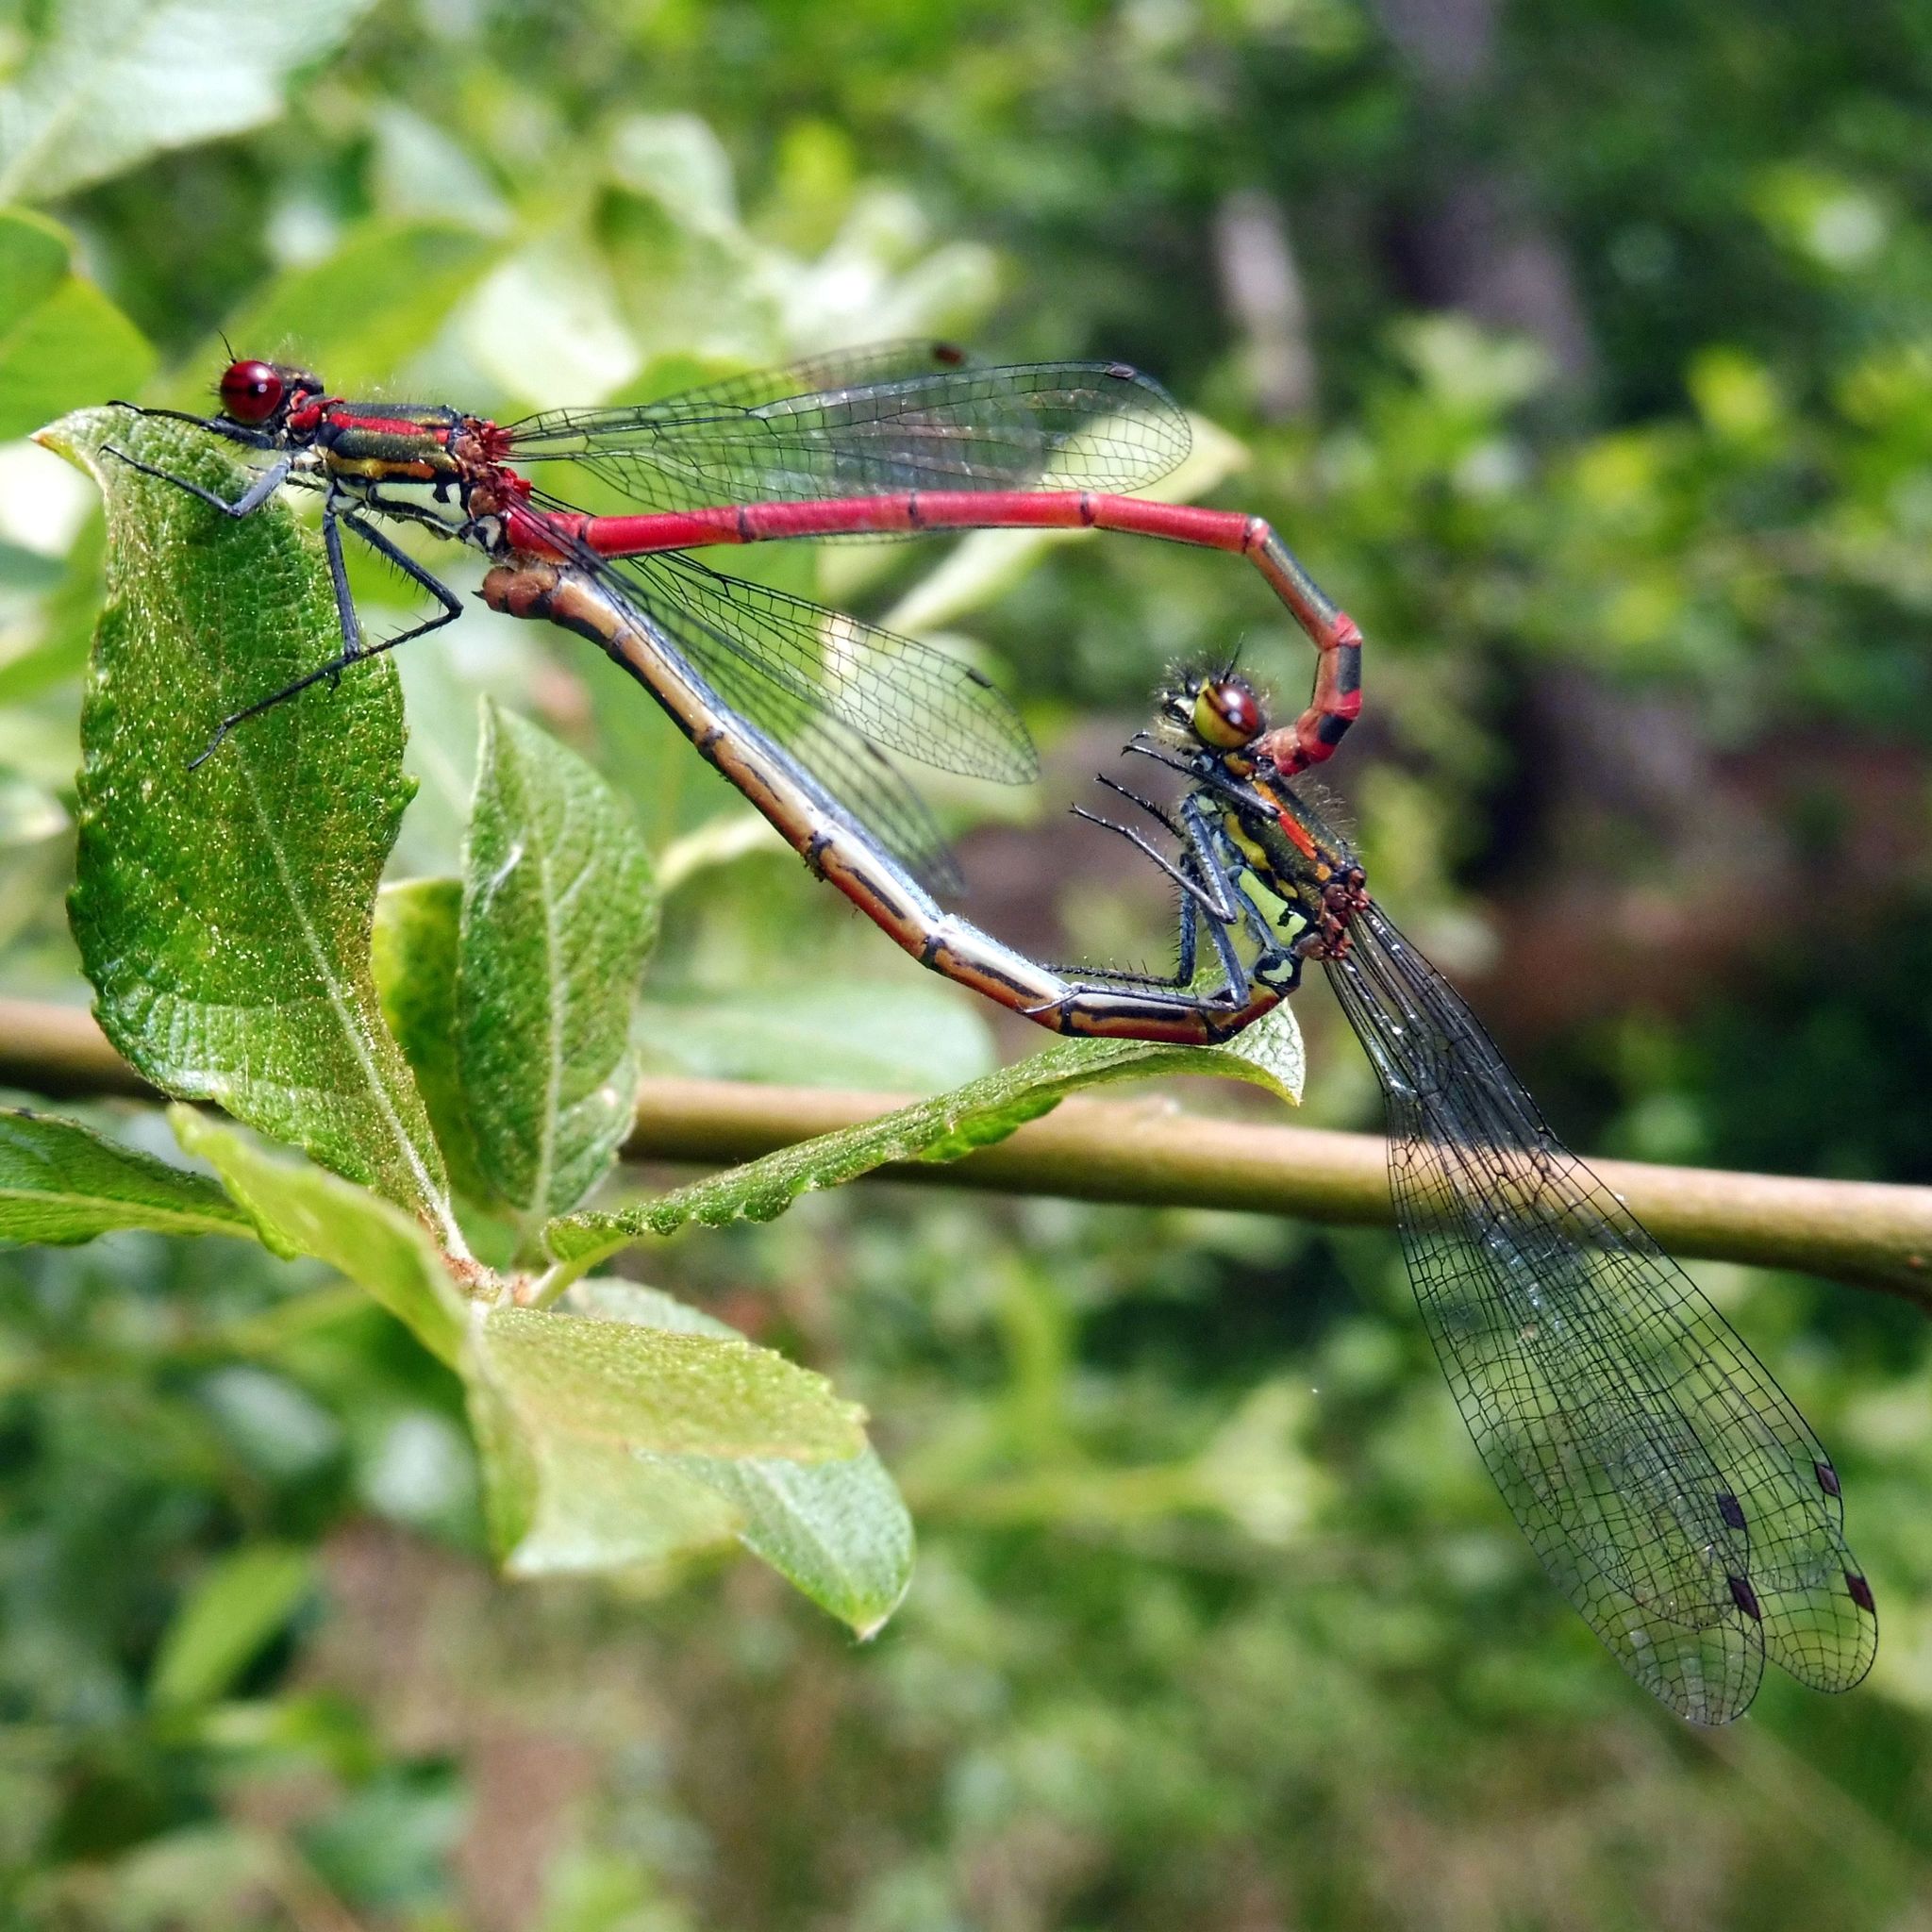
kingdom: Animalia
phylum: Arthropoda
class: Insecta
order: Odonata
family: Coenagrionidae
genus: Pyrrhosoma
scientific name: Pyrrhosoma nymphula
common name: Large red damsel
